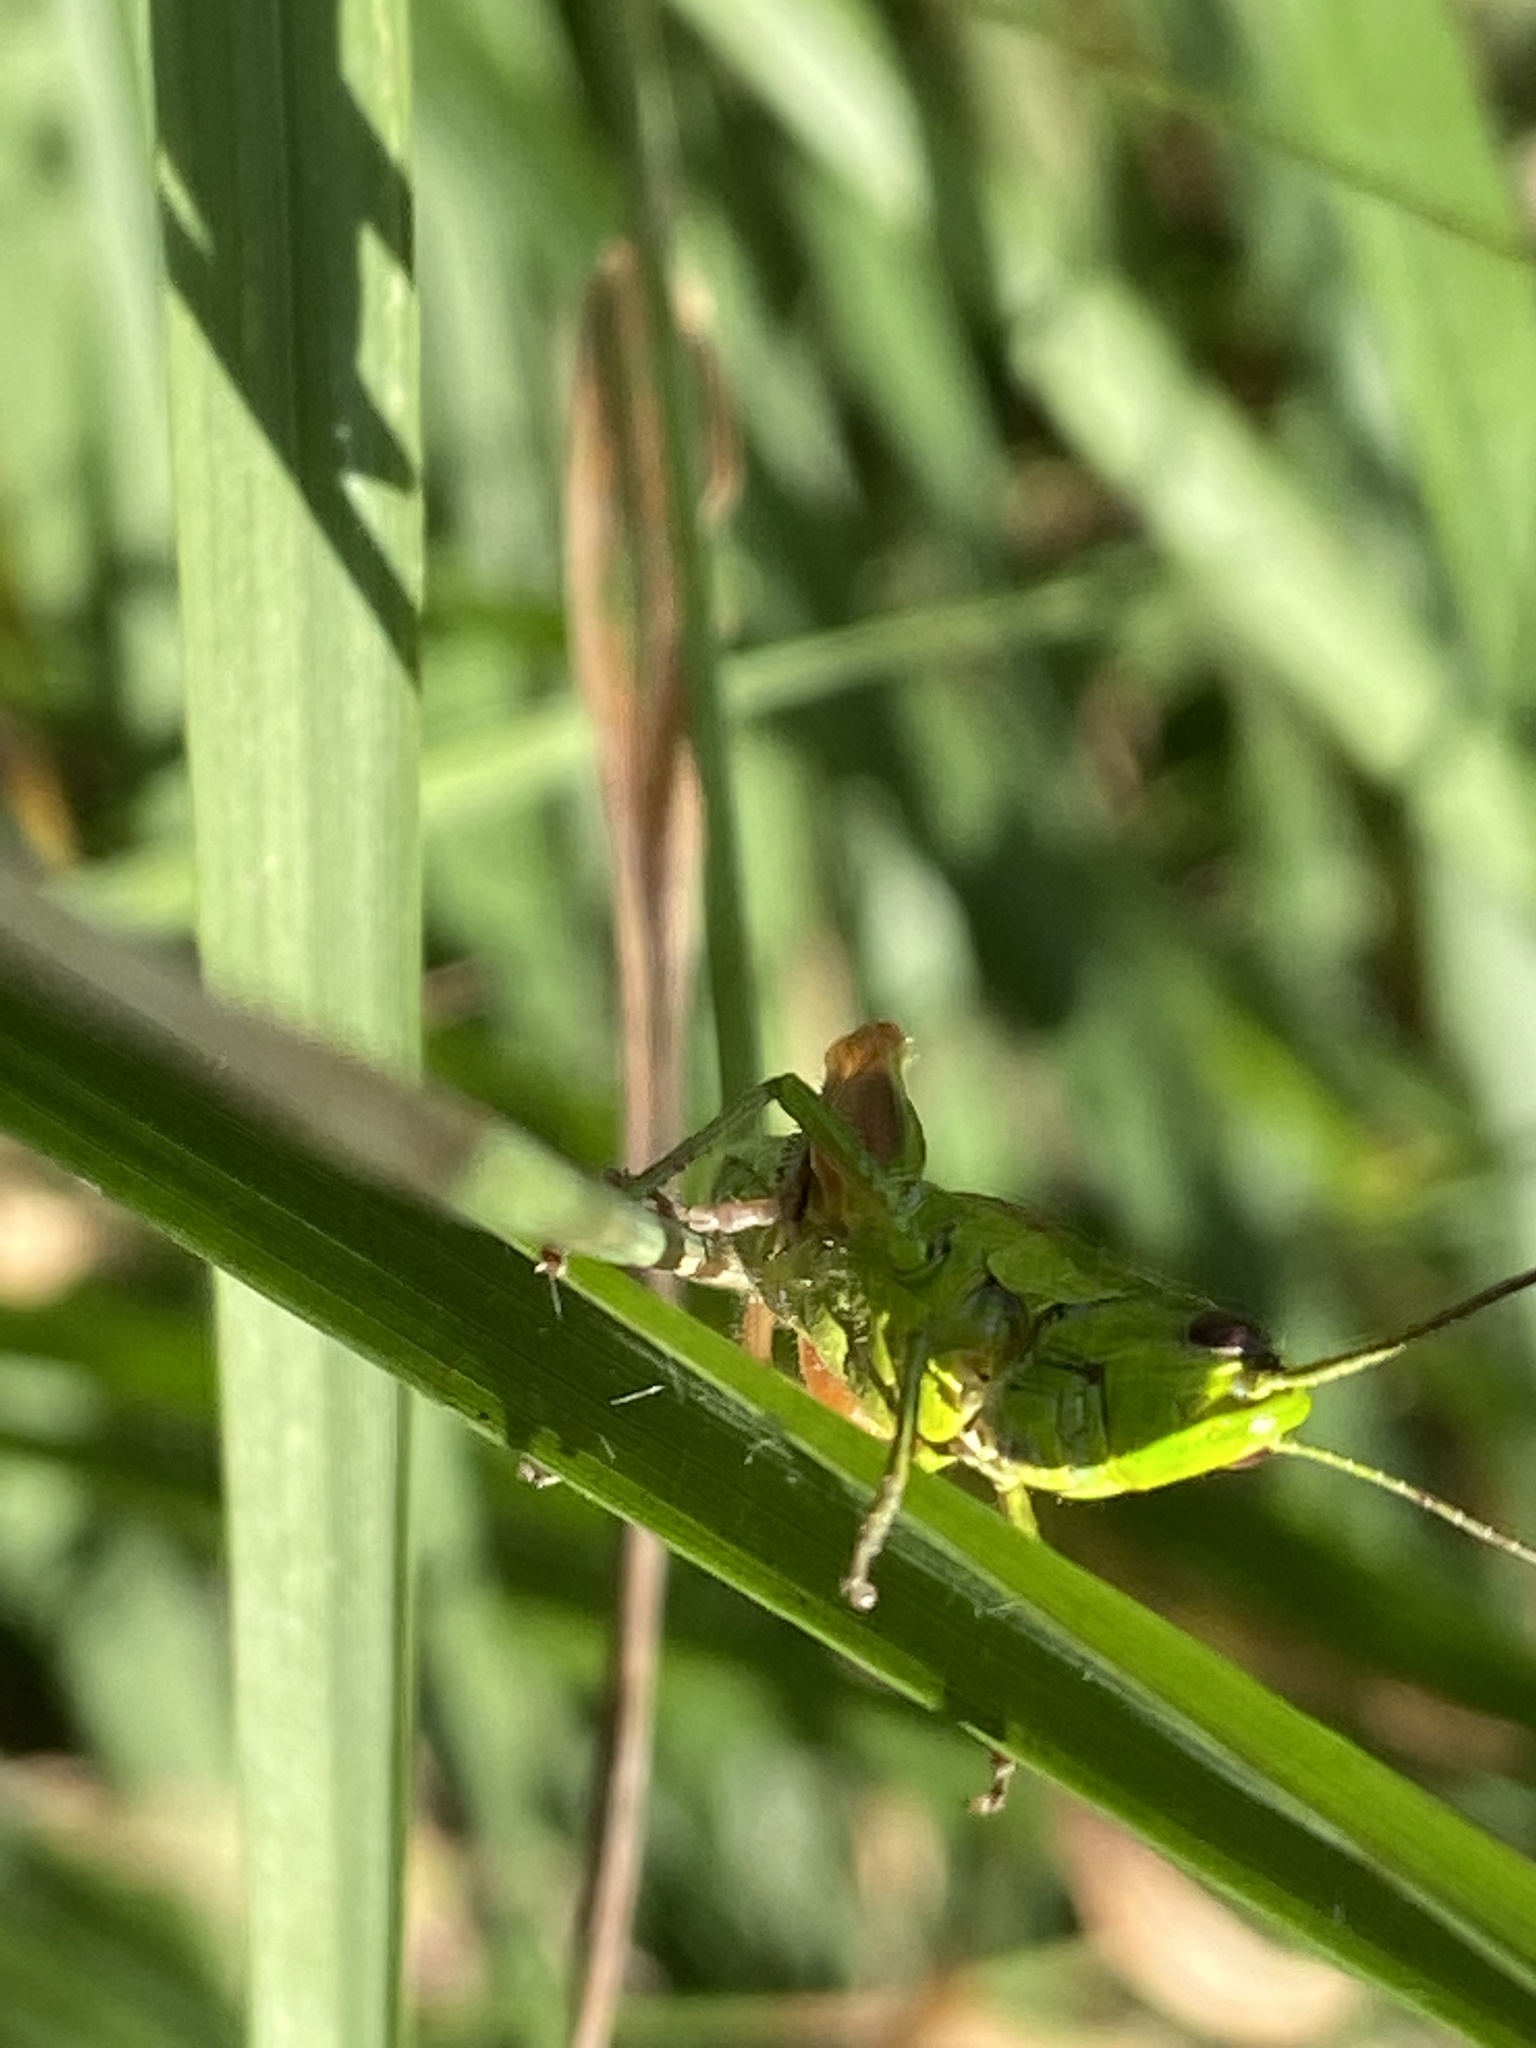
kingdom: Animalia
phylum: Arthropoda
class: Insecta
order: Orthoptera
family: Acrididae
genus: Euthystira
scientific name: Euthystira brachyptera
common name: Small gold grasshopper
